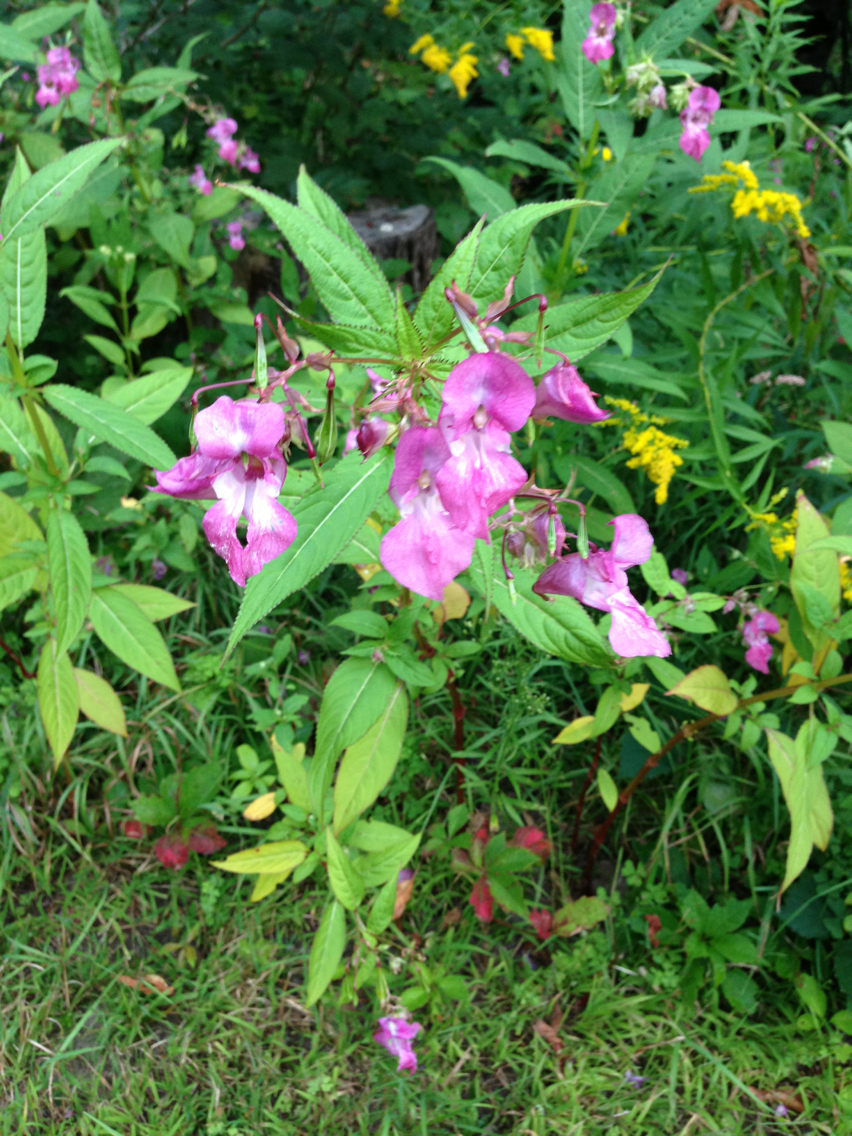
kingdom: Plantae
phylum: Tracheophyta
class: Magnoliopsida
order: Ericales
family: Balsaminaceae
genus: Impatiens
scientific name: Impatiens glandulifera
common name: Himalayan balsam
